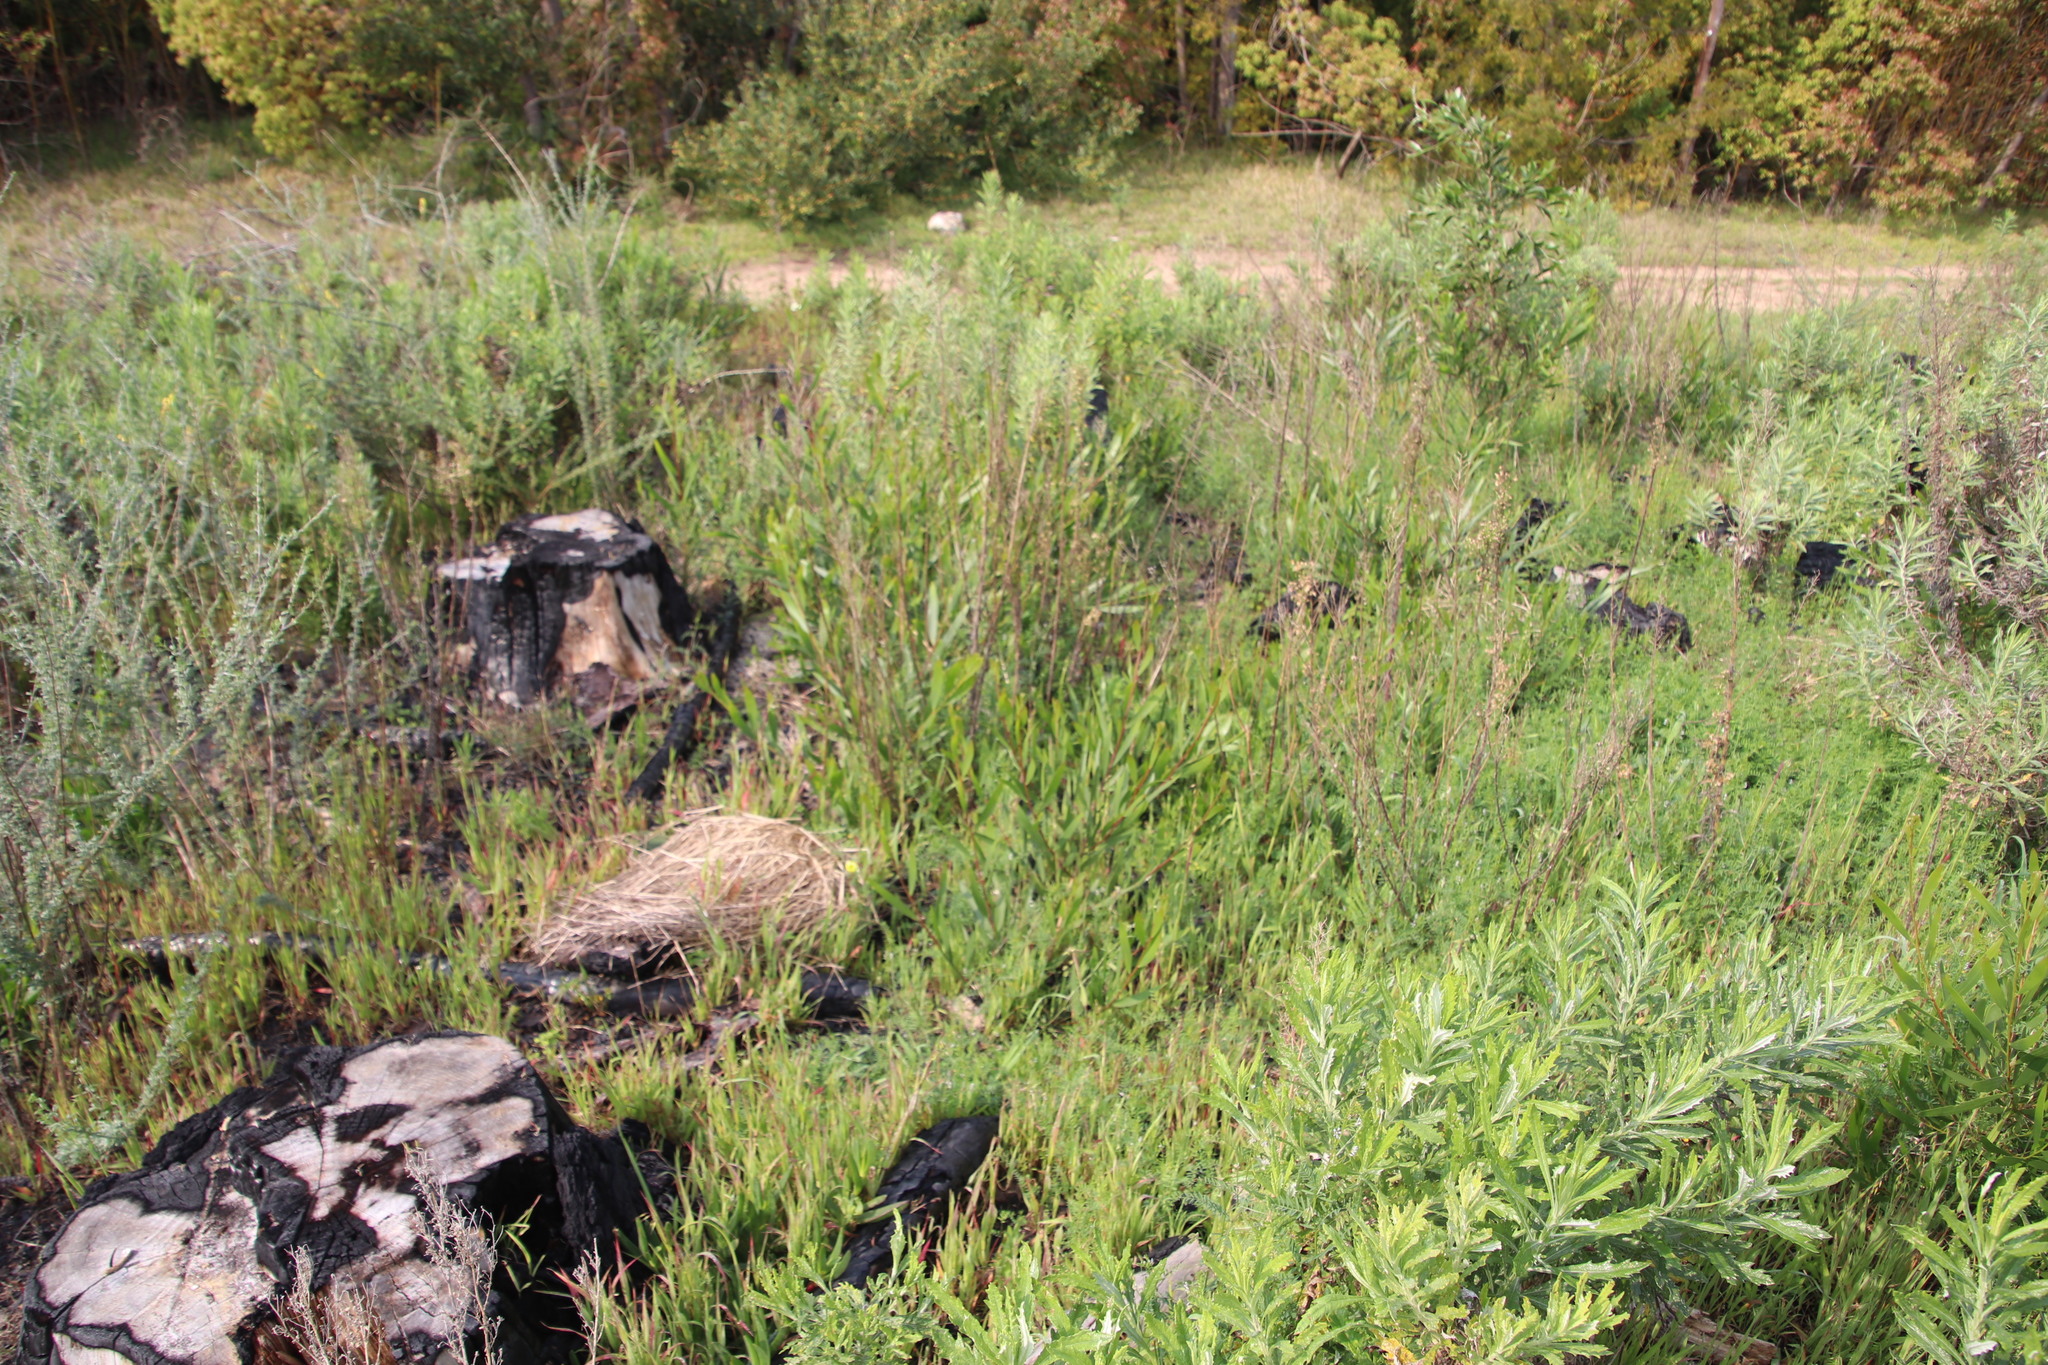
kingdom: Plantae
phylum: Tracheophyta
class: Magnoliopsida
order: Fabales
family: Fabaceae
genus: Acacia
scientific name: Acacia longifolia
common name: Sydney golden wattle
